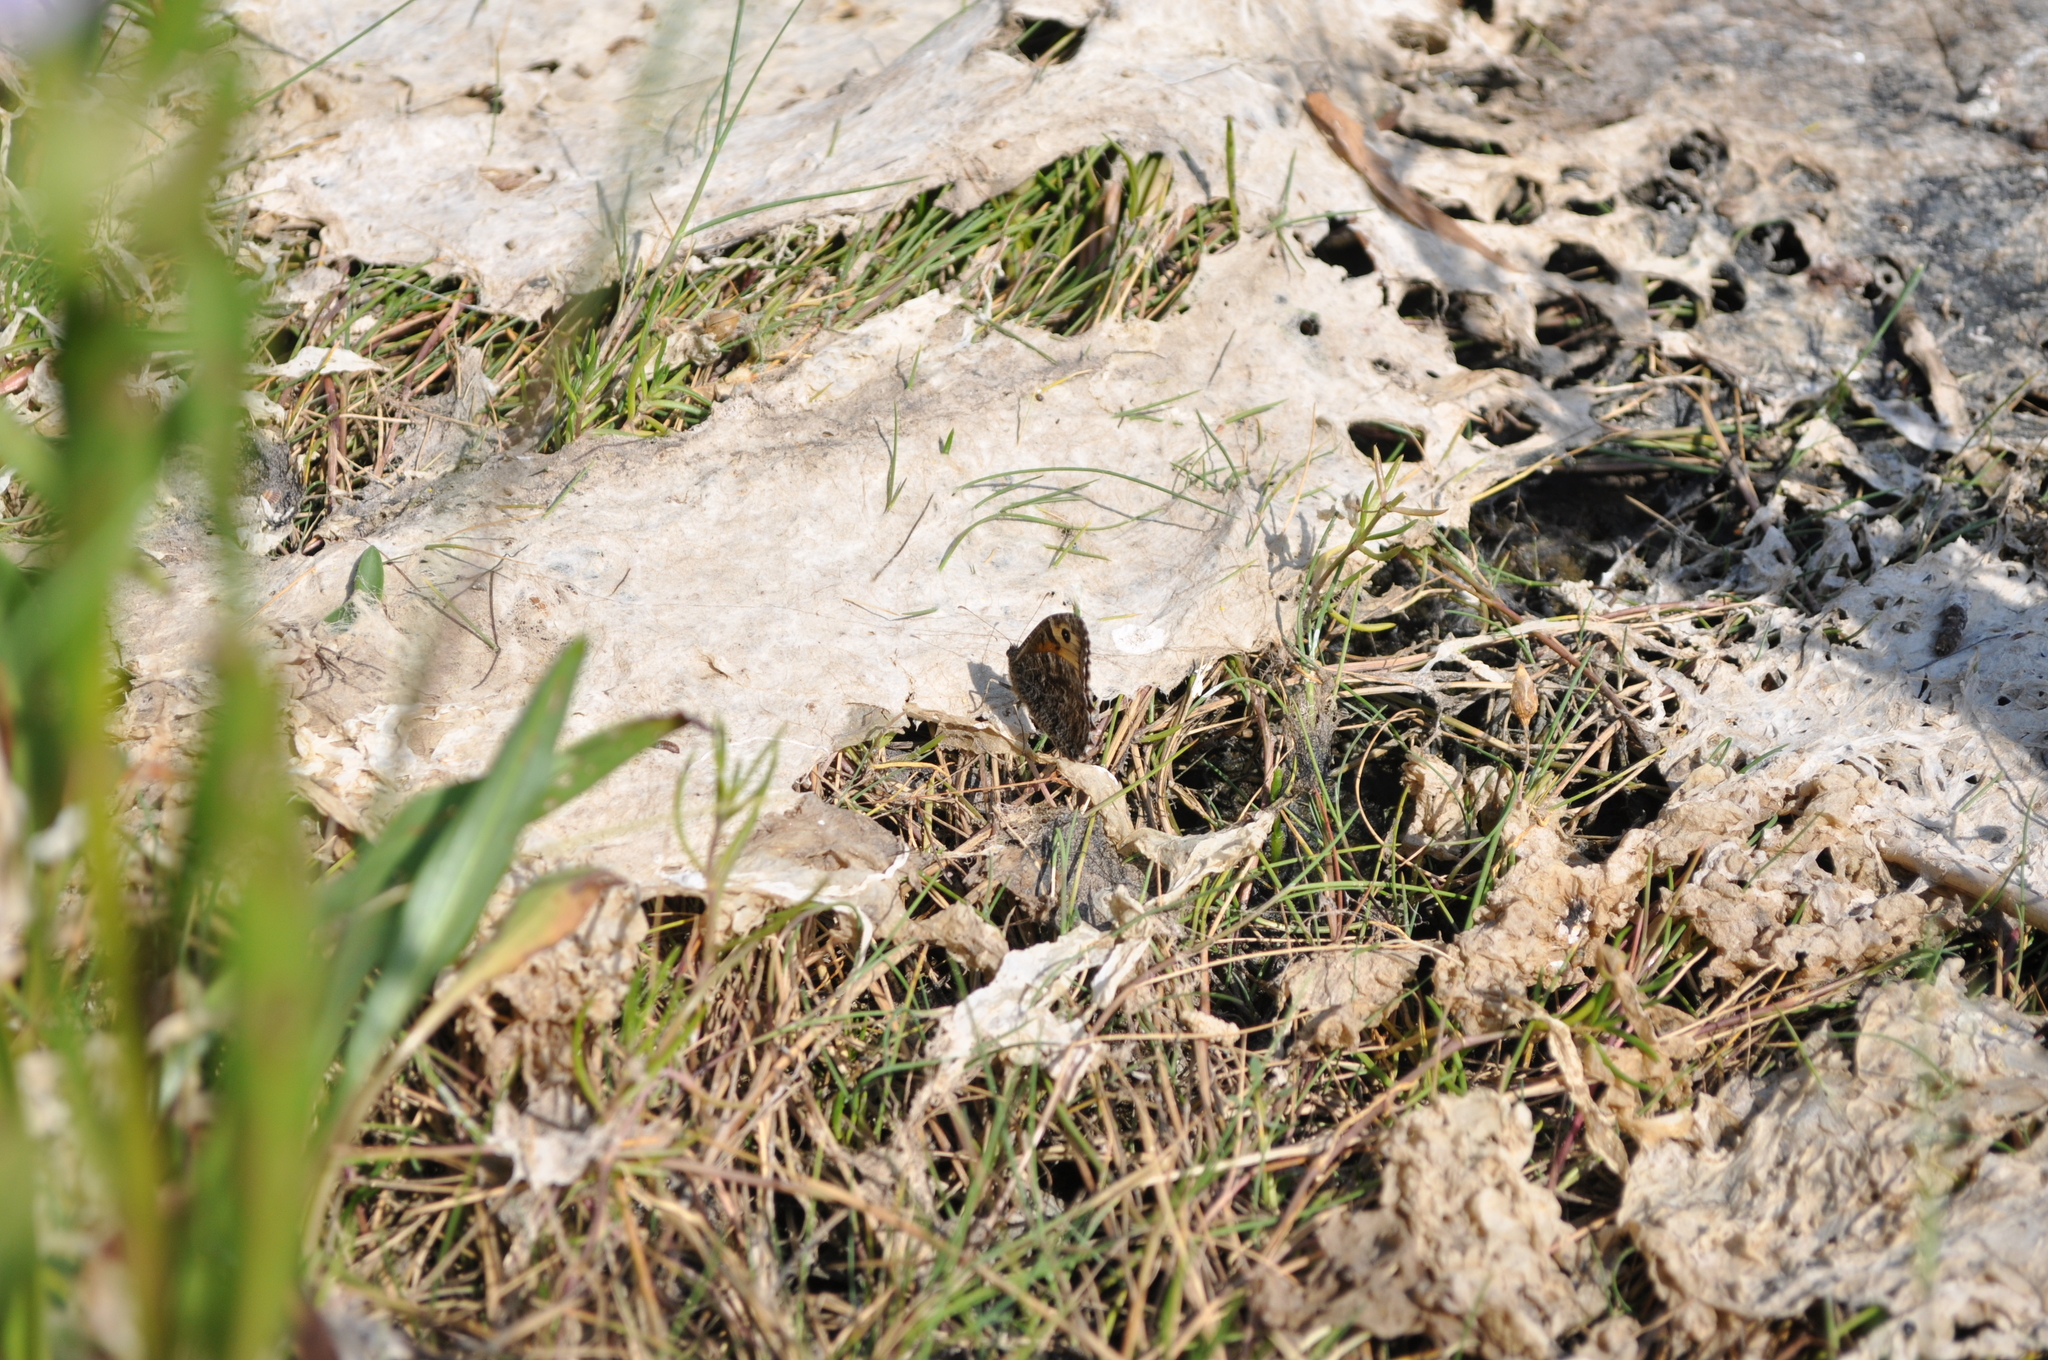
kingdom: Animalia
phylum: Arthropoda
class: Insecta
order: Lepidoptera
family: Nymphalidae
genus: Hipparchia
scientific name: Hipparchia semele
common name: Grayling
